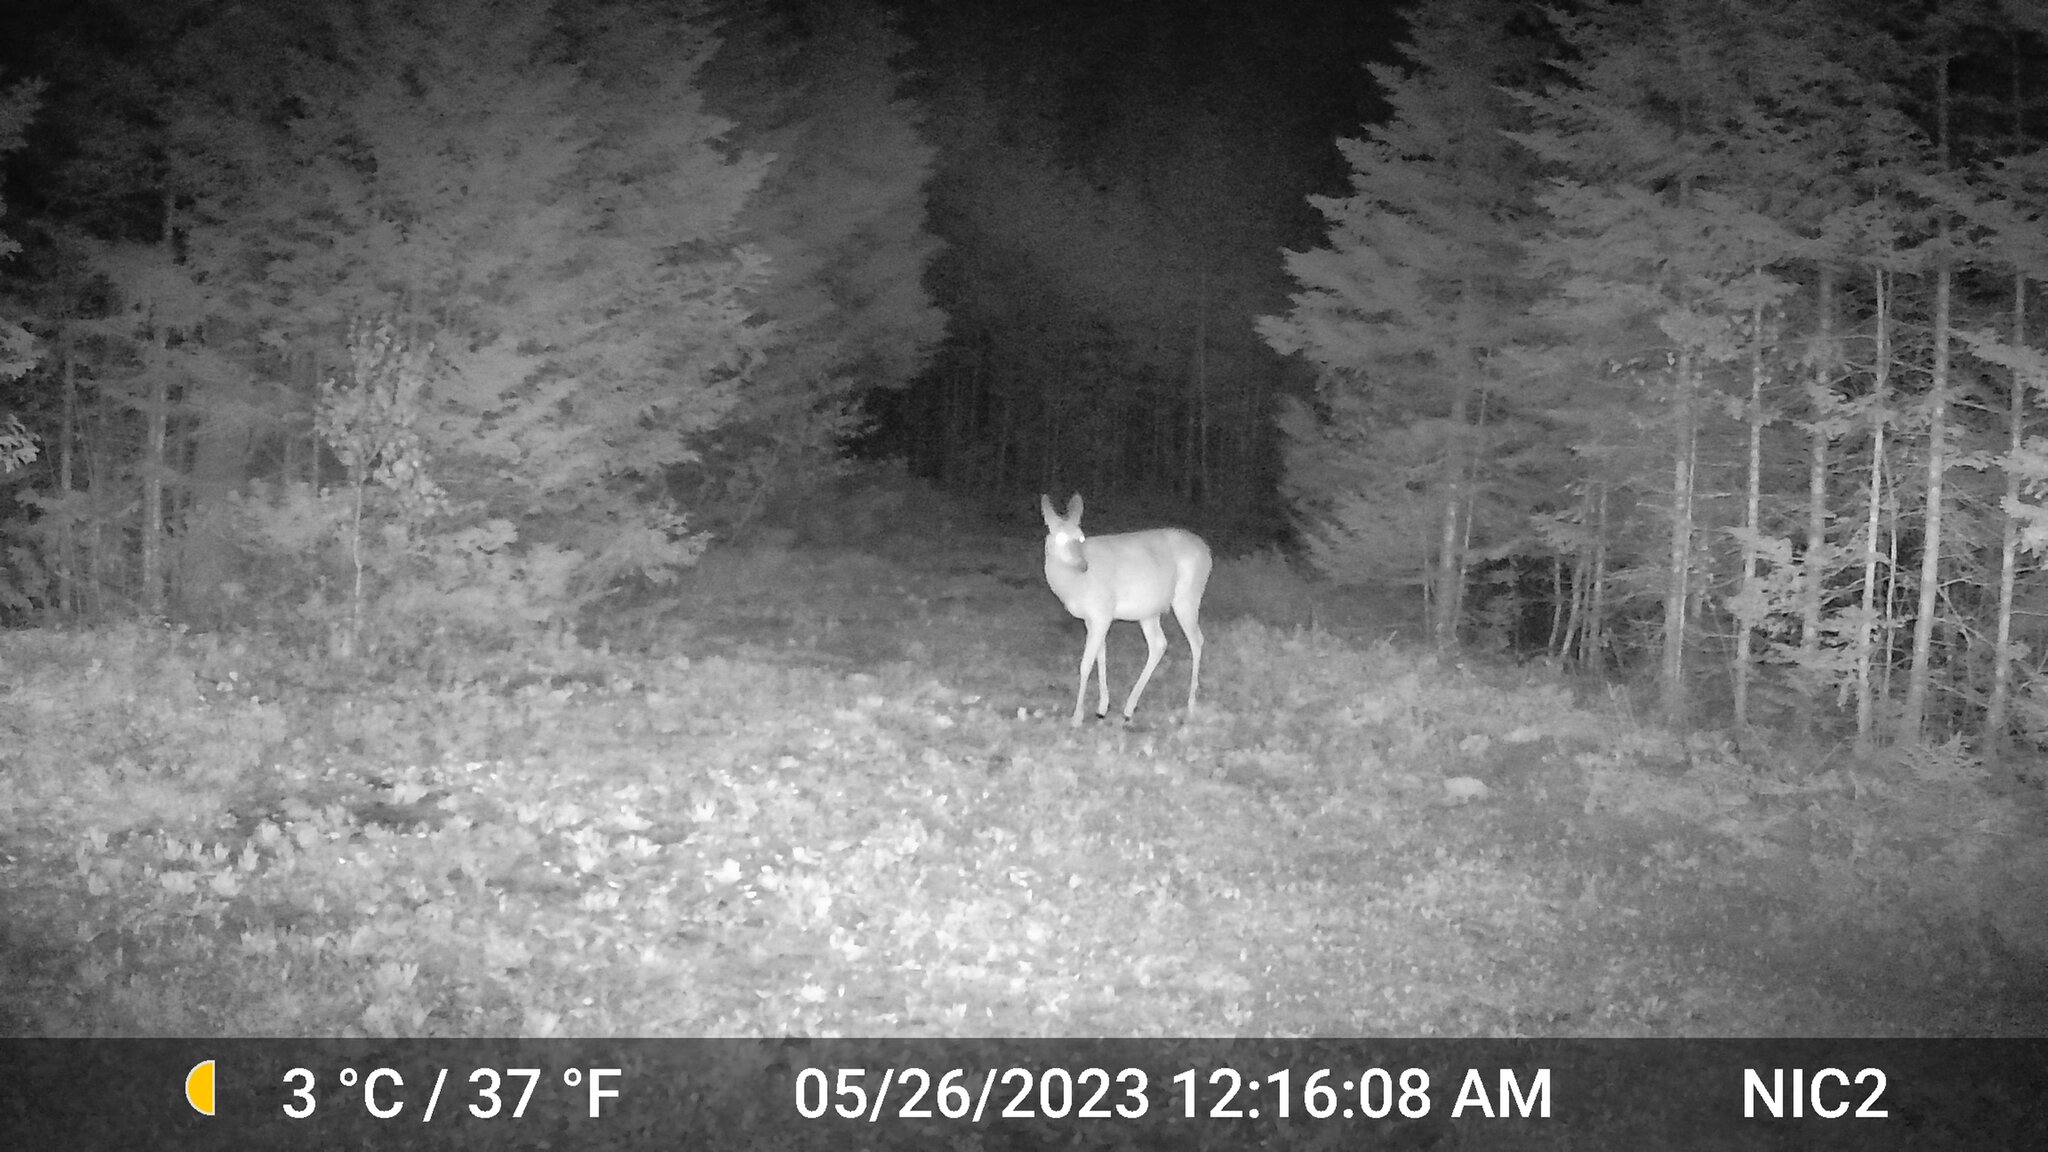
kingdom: Animalia
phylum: Chordata
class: Mammalia
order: Artiodactyla
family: Cervidae
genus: Odocoileus
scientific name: Odocoileus virginianus
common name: White-tailed deer
